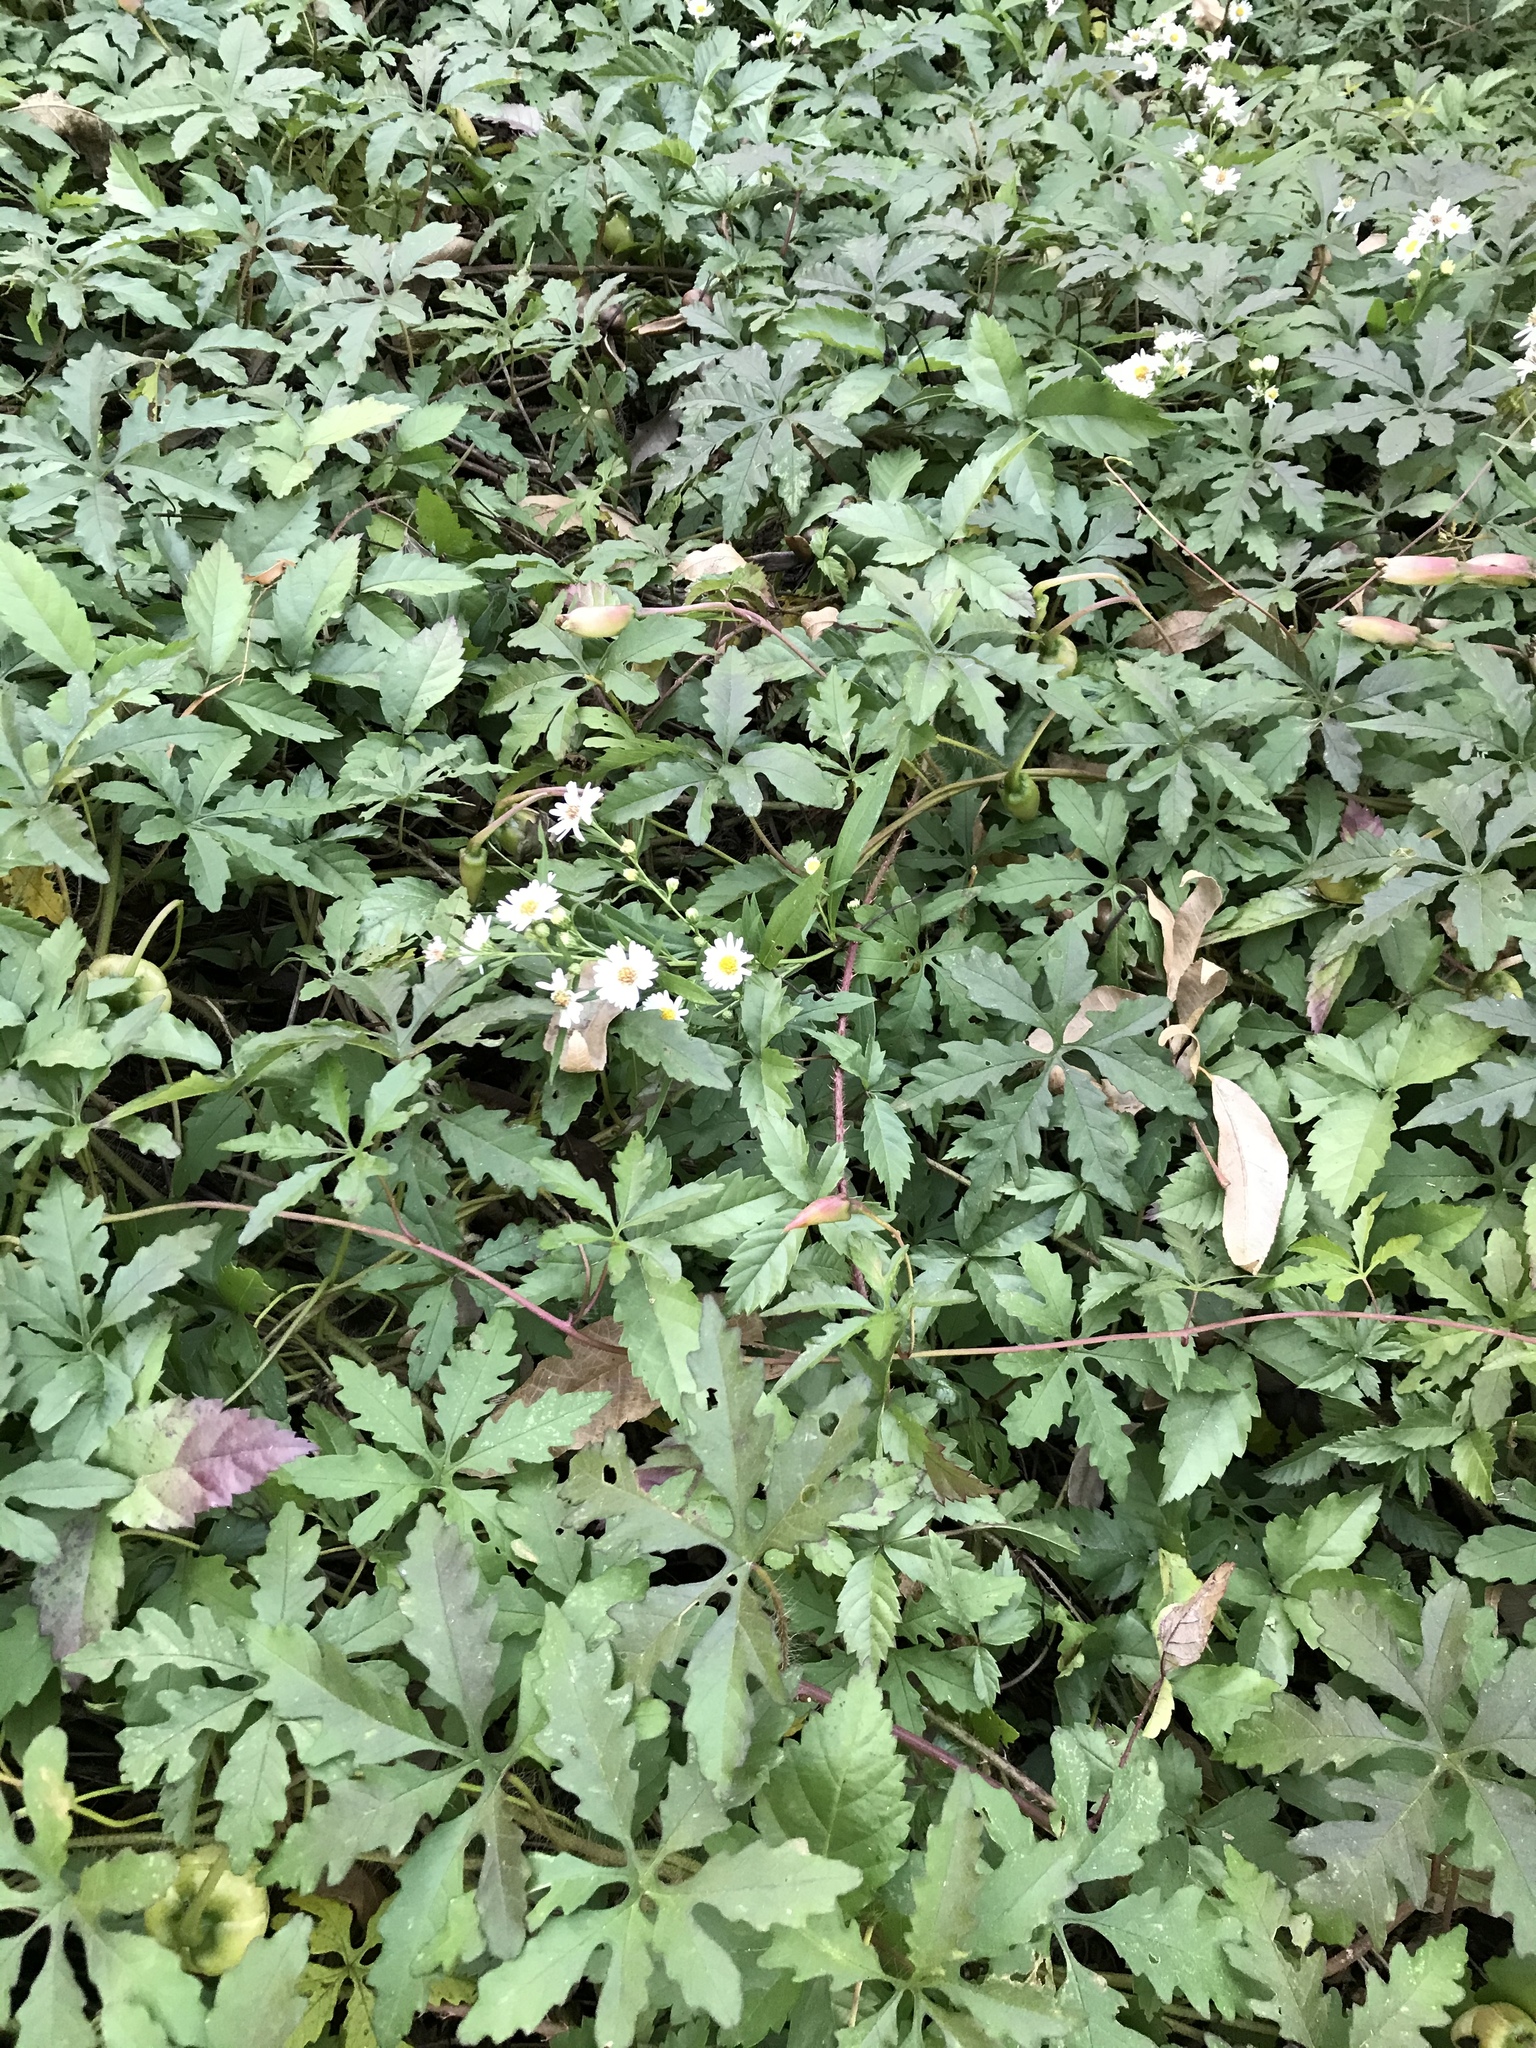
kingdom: Plantae
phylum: Tracheophyta
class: Magnoliopsida
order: Solanales
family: Convolvulaceae
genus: Distimake
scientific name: Distimake dissectus
